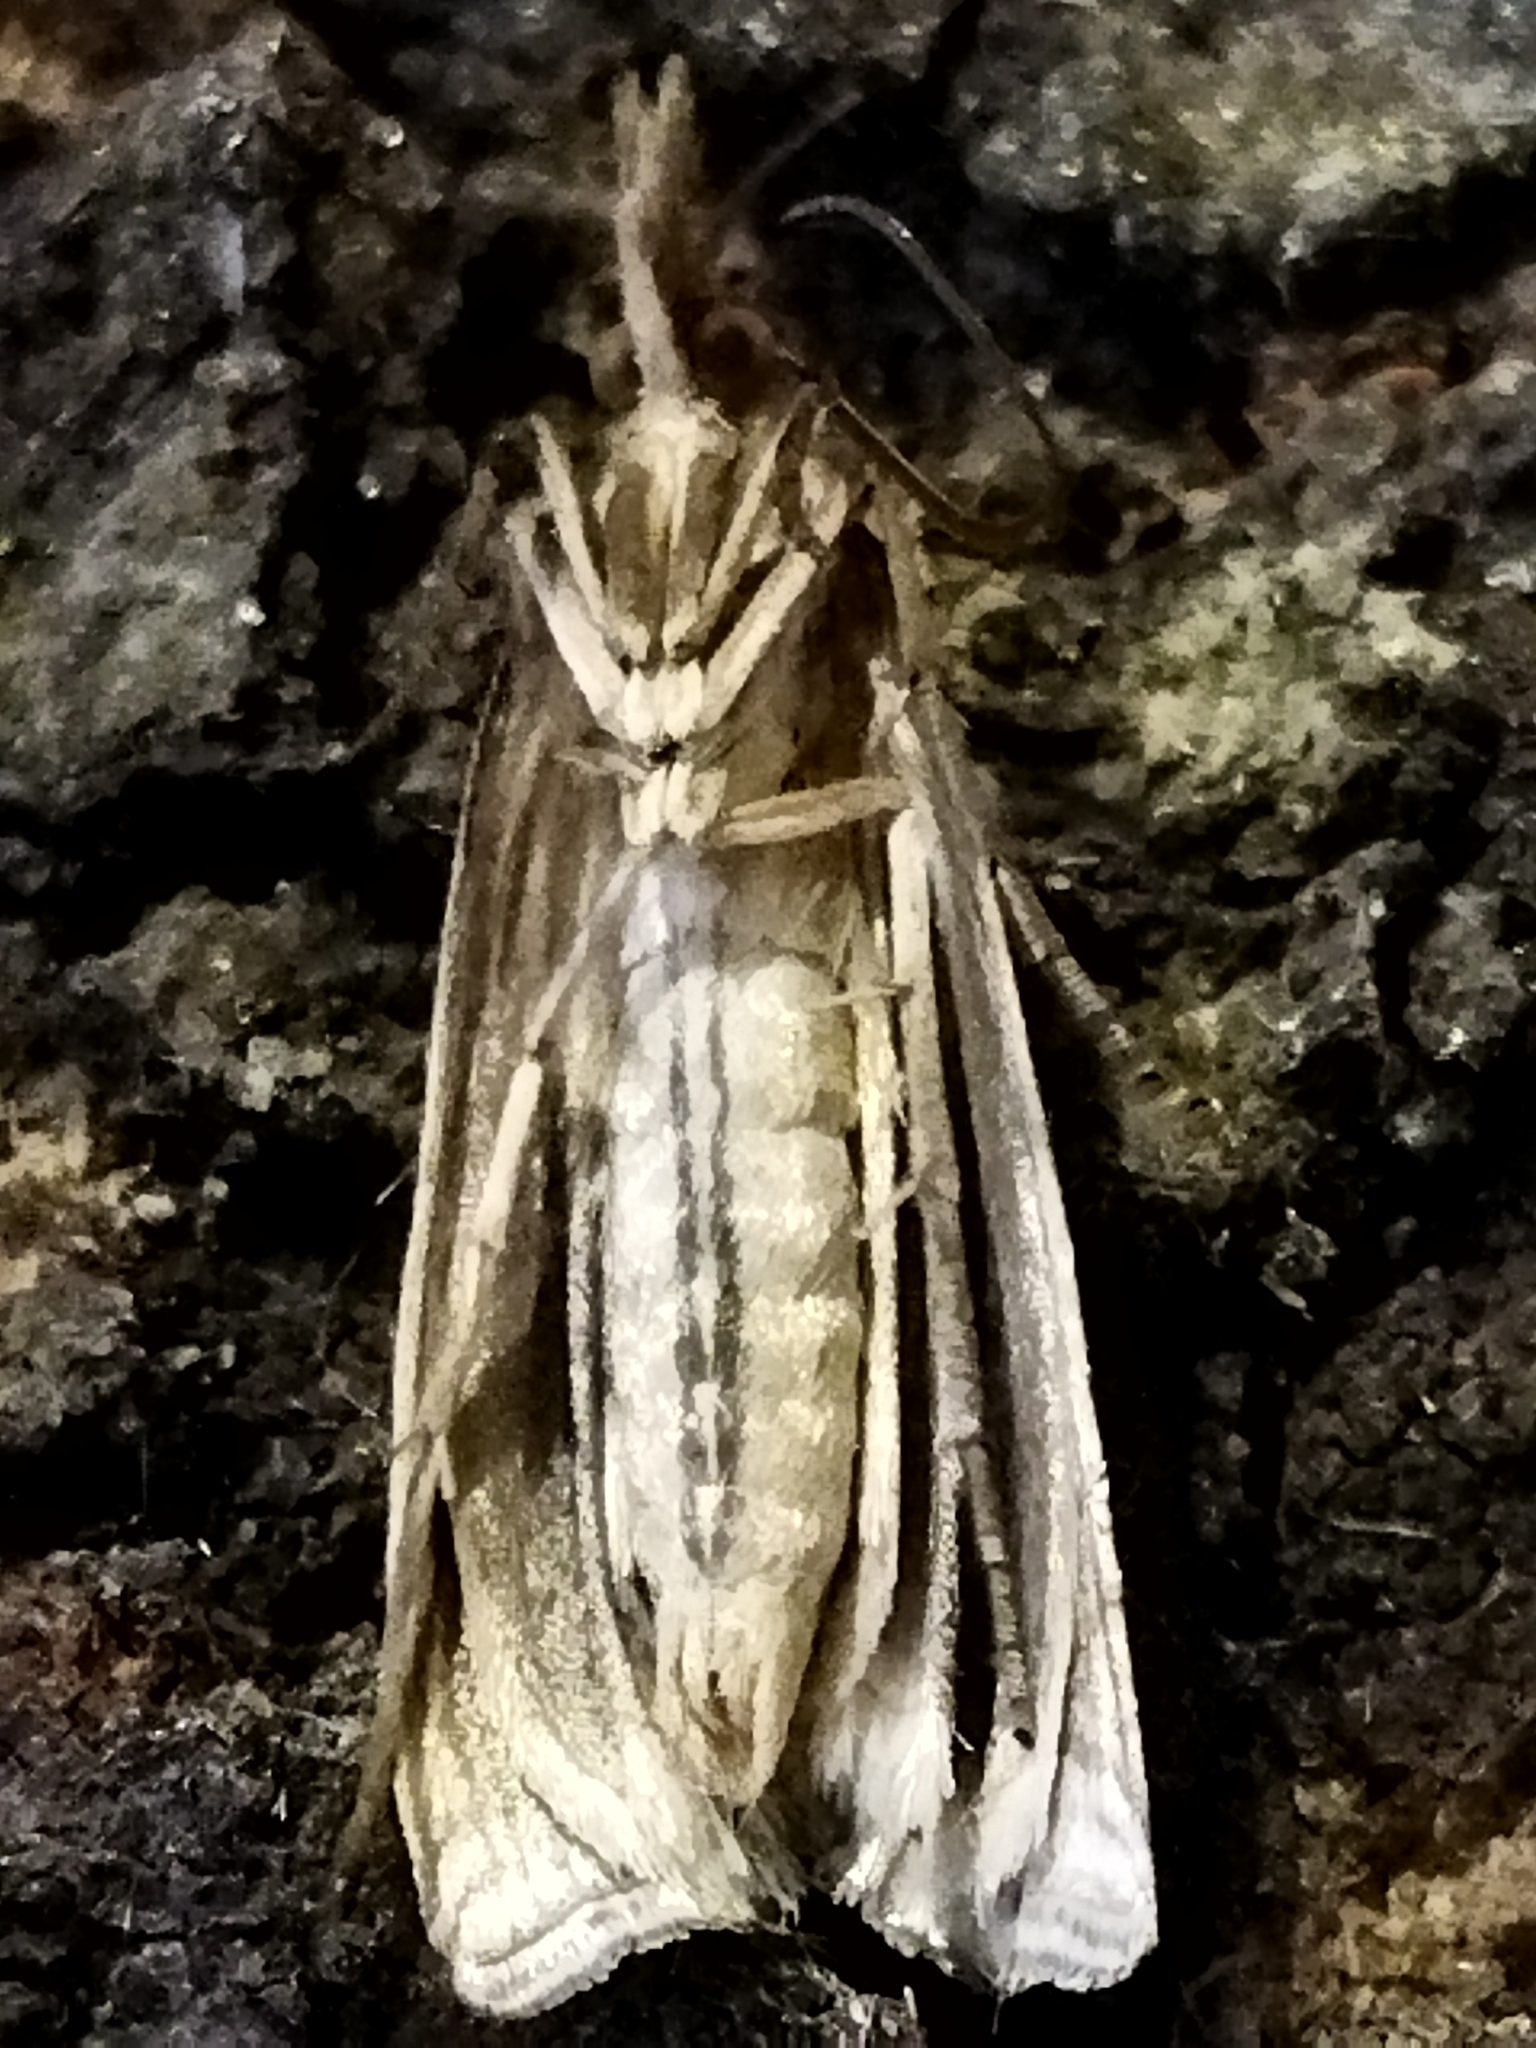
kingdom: Animalia
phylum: Arthropoda
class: Insecta
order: Lepidoptera
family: Crambidae
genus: Ancylolomia
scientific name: Ancylolomia
